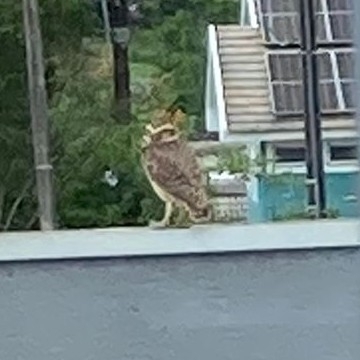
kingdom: Animalia
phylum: Chordata
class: Aves
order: Strigiformes
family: Strigidae
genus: Athene
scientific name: Athene cunicularia
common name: Burrowing owl
